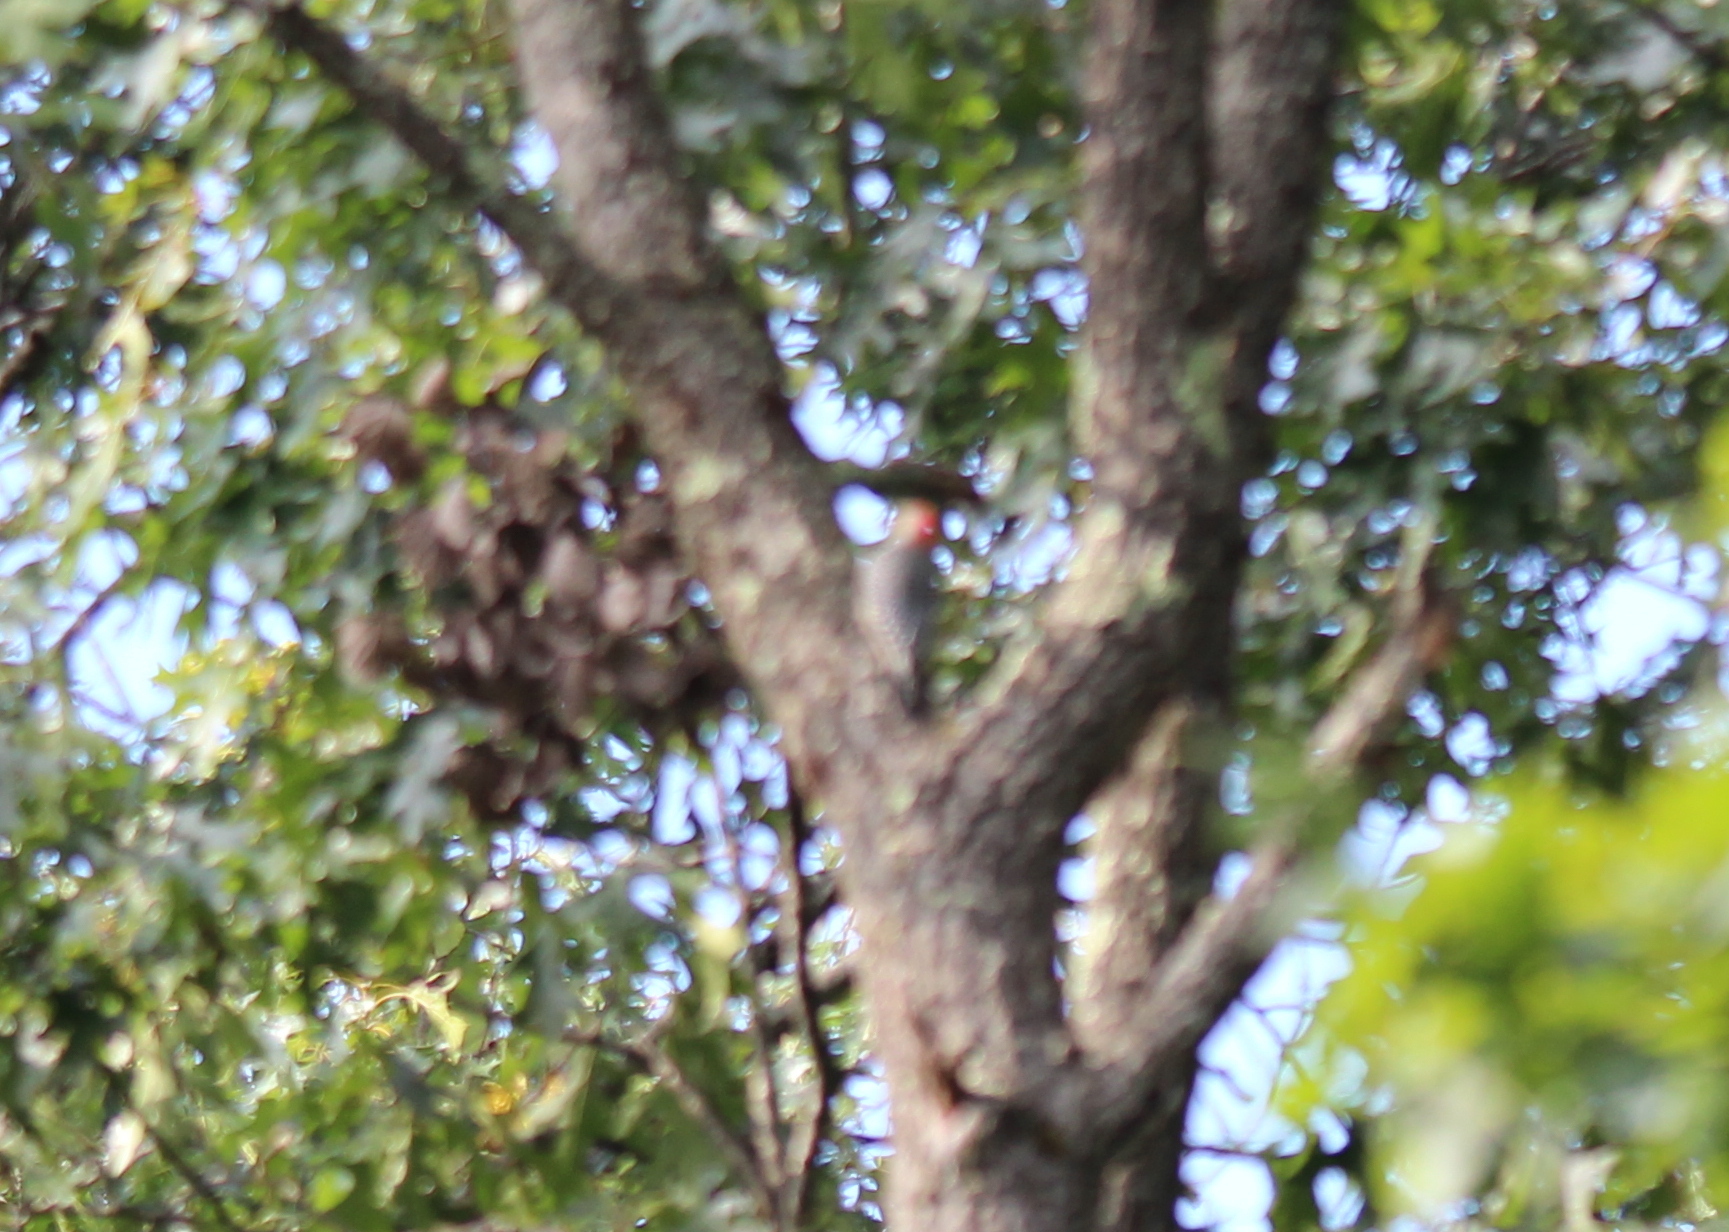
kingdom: Animalia
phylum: Chordata
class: Aves
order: Piciformes
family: Picidae
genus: Melanerpes
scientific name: Melanerpes carolinus
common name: Red-bellied woodpecker
